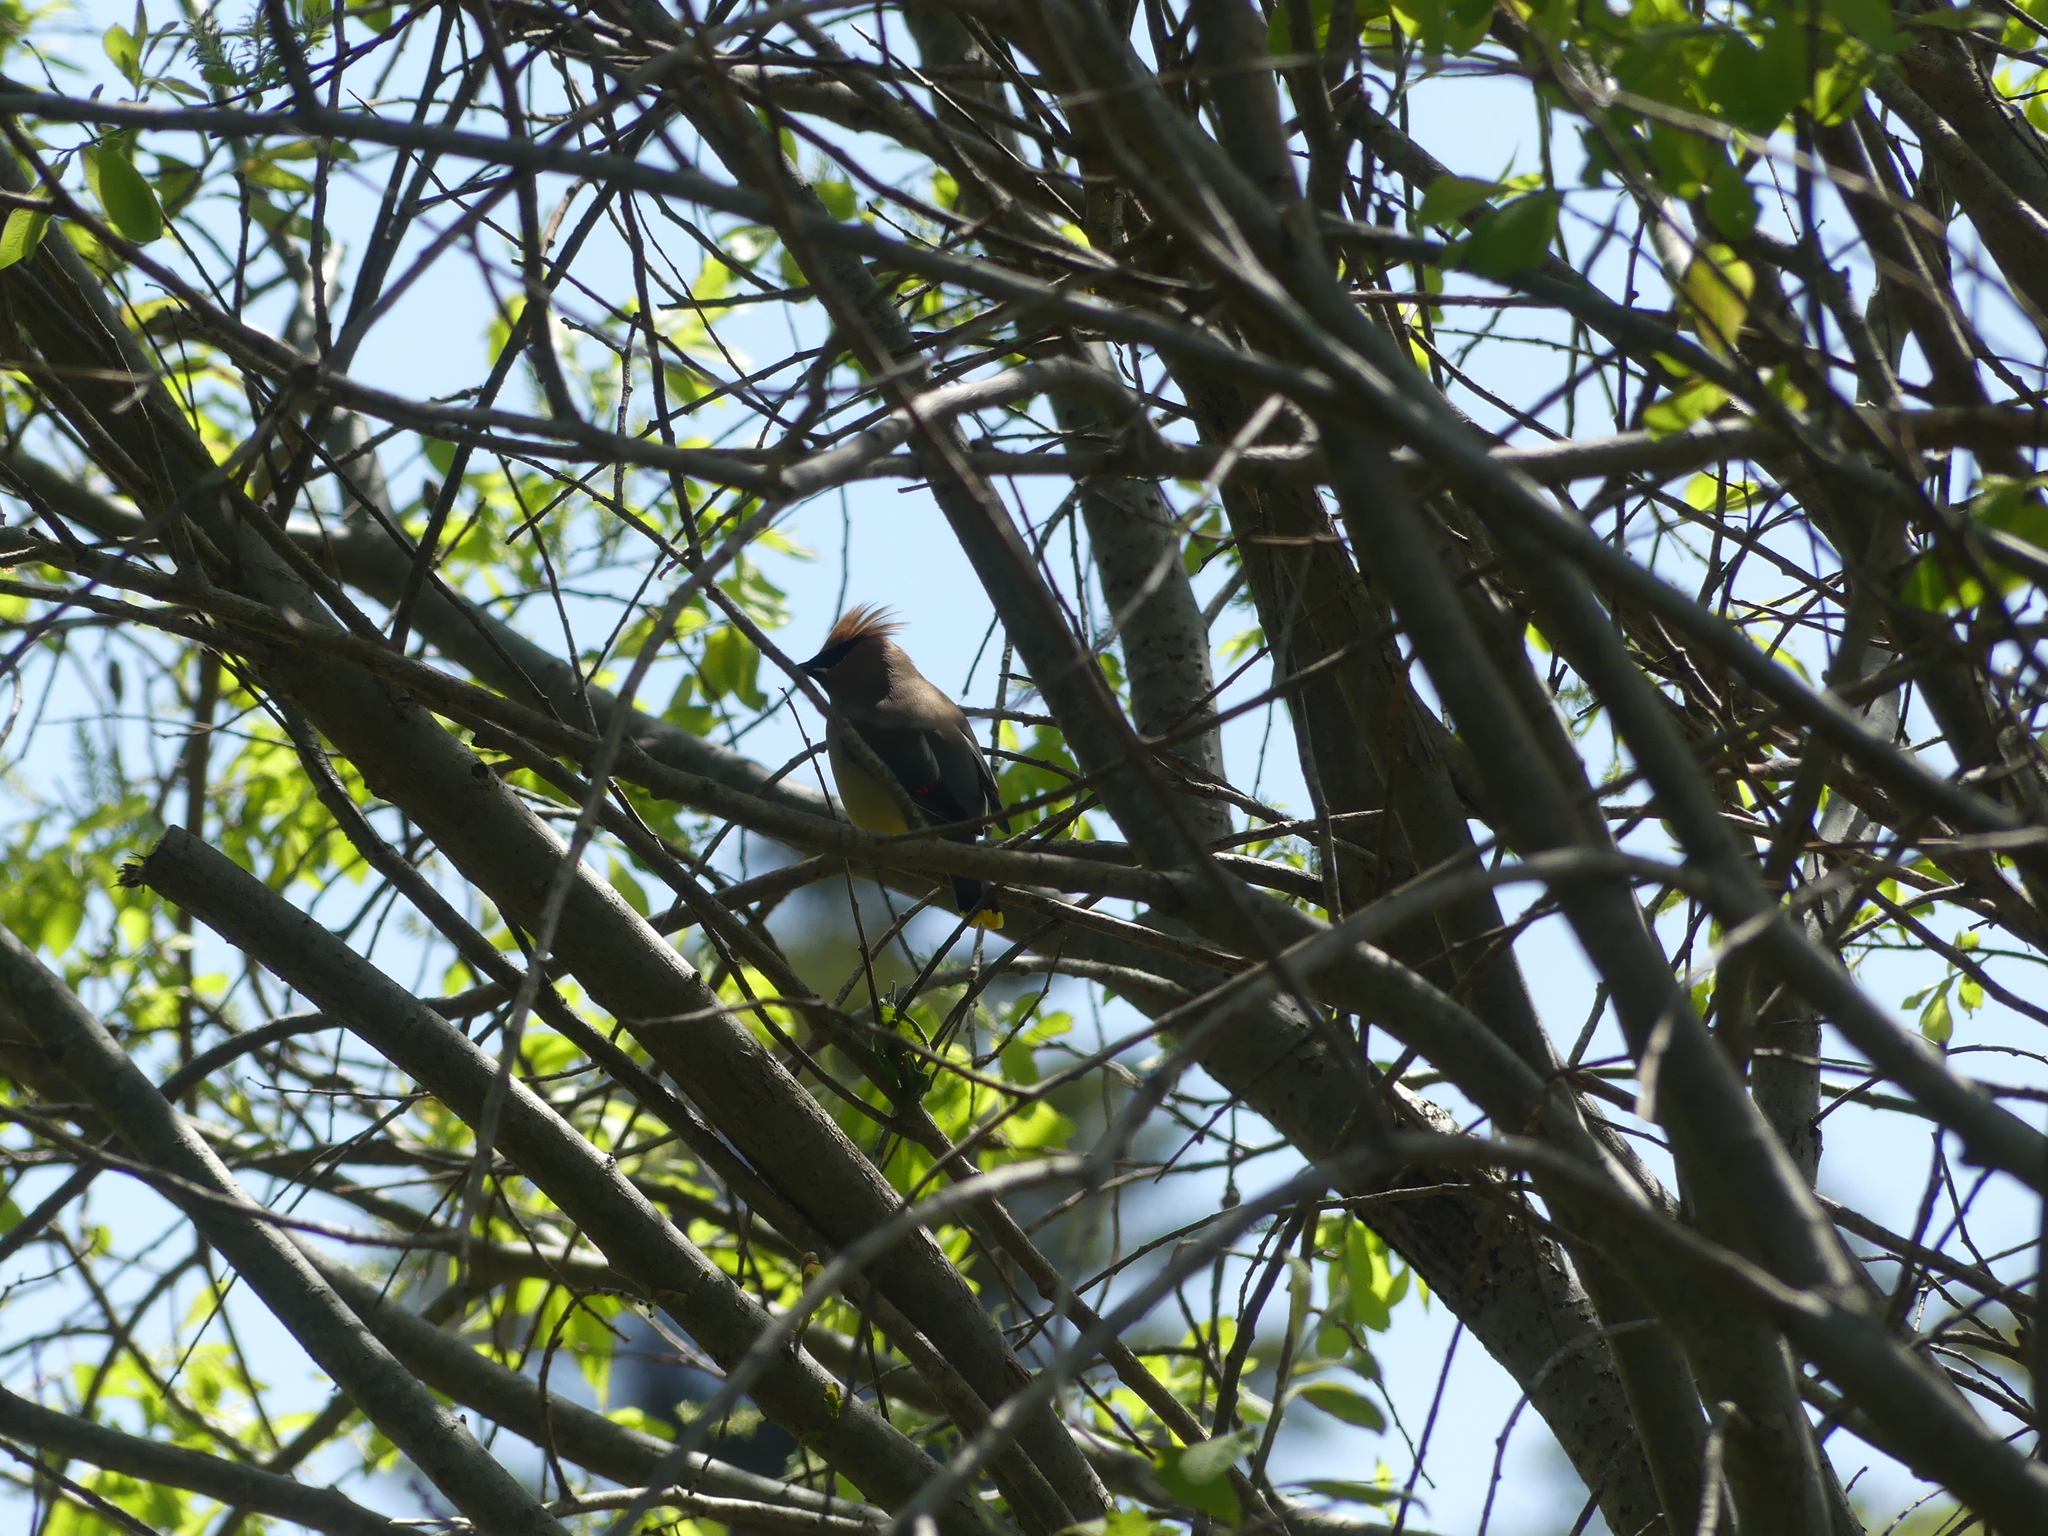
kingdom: Animalia
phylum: Chordata
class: Aves
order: Passeriformes
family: Bombycillidae
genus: Bombycilla
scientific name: Bombycilla cedrorum
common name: Cedar waxwing
